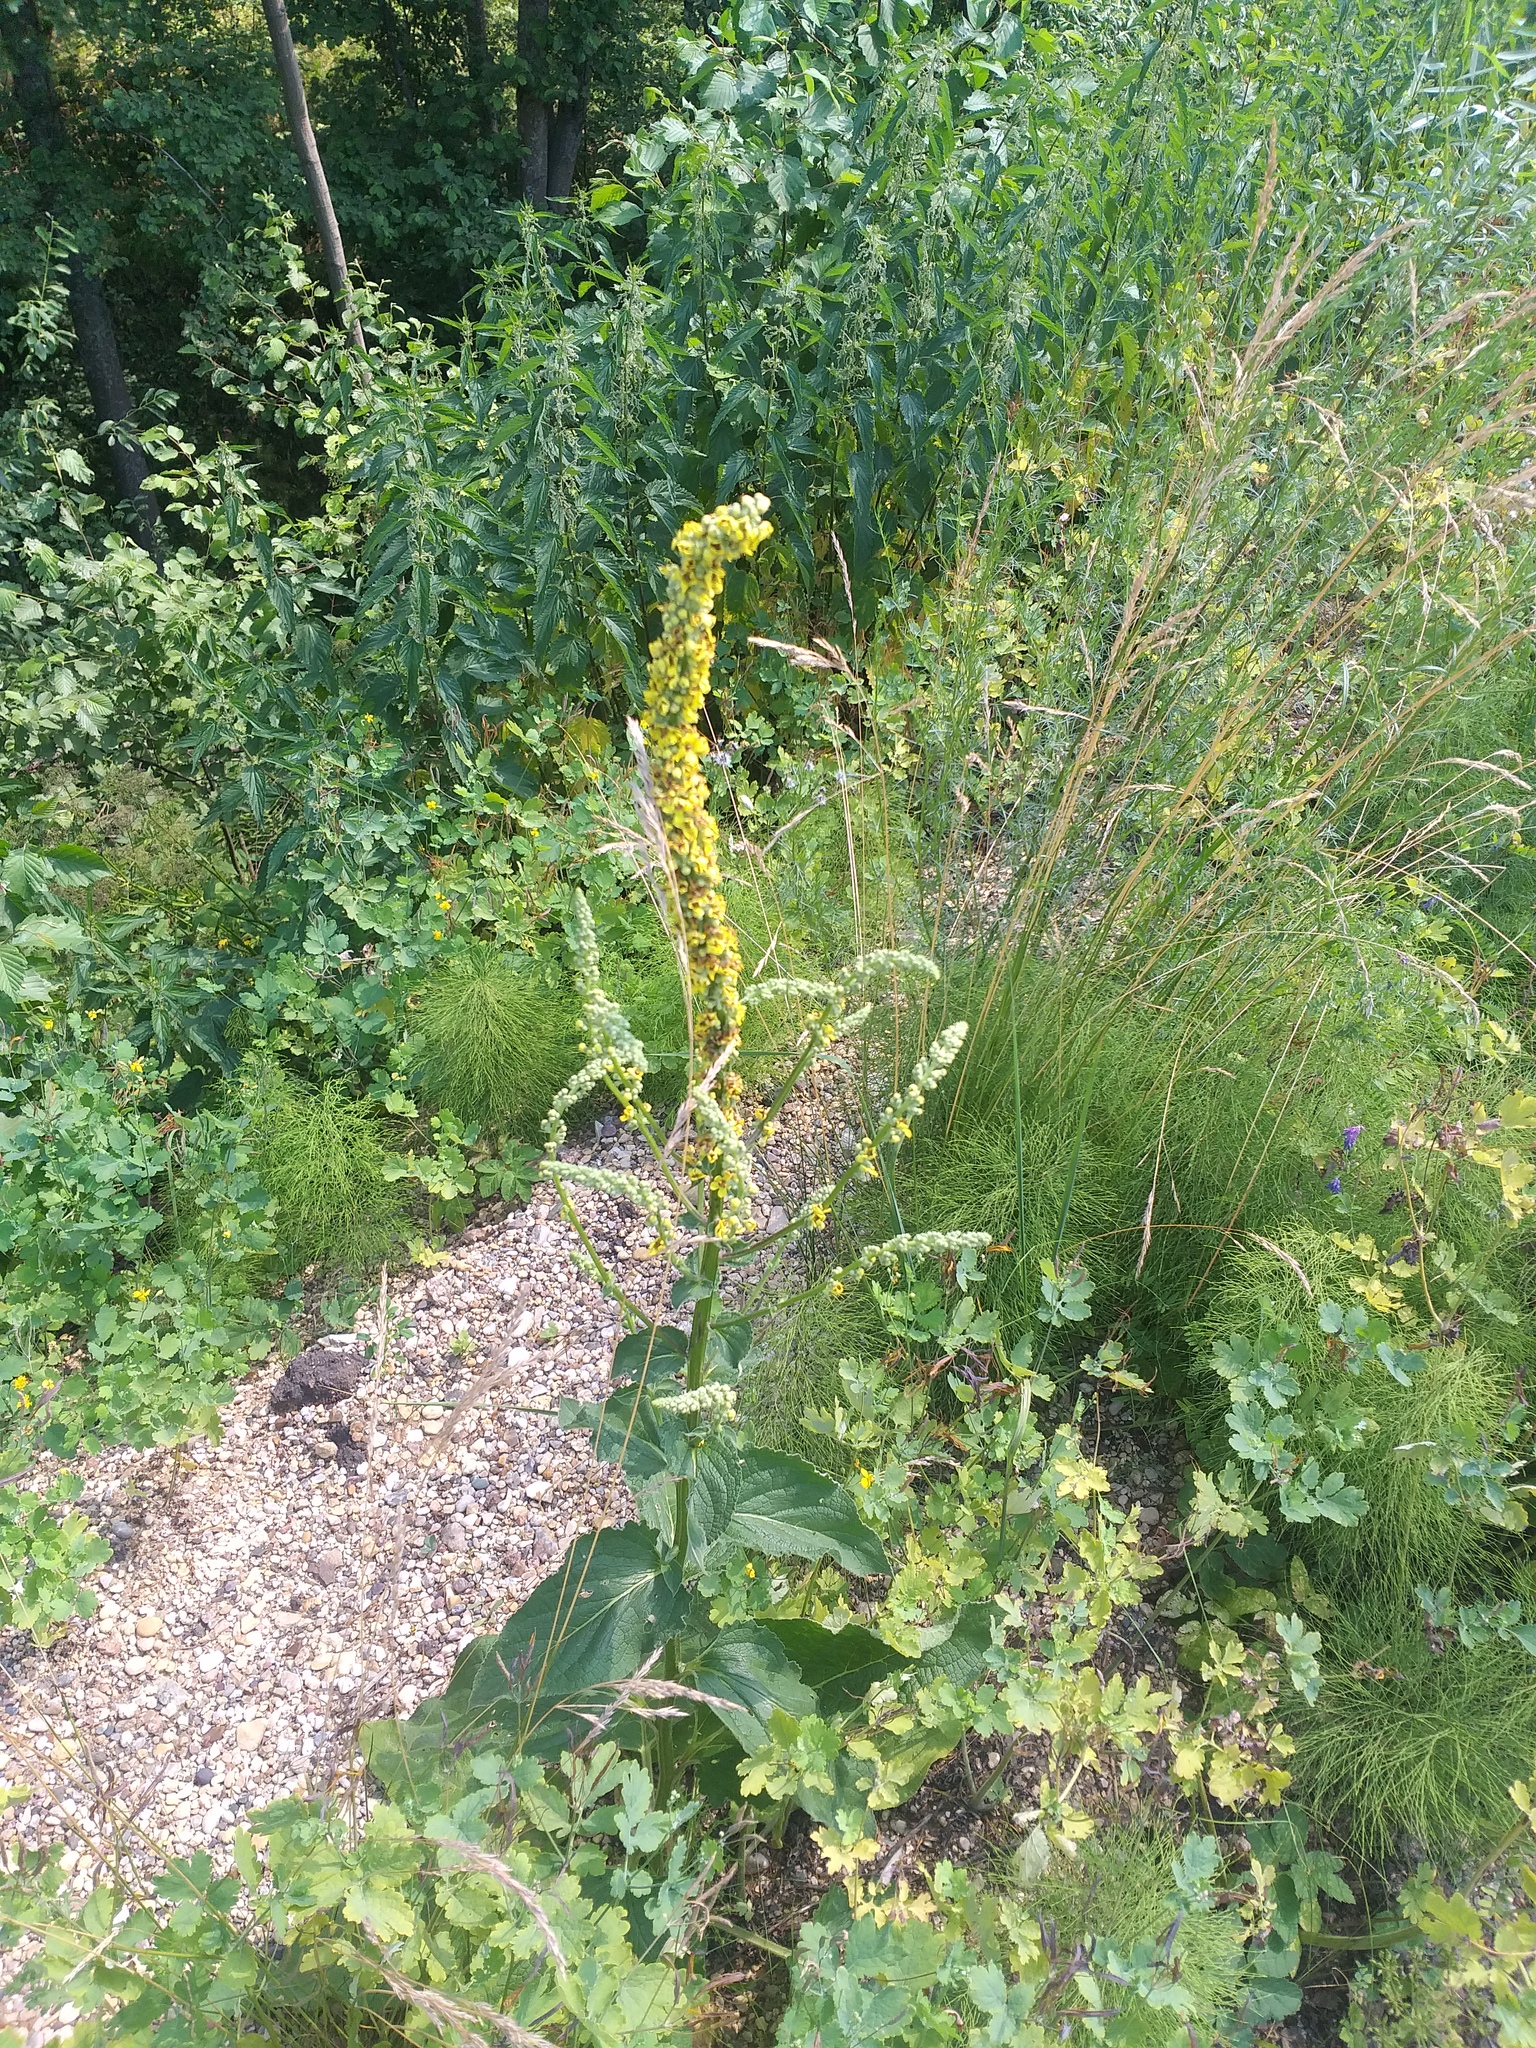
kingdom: Plantae
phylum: Tracheophyta
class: Magnoliopsida
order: Lamiales
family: Scrophulariaceae
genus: Verbascum
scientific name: Verbascum nigrum
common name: Dark mullein
